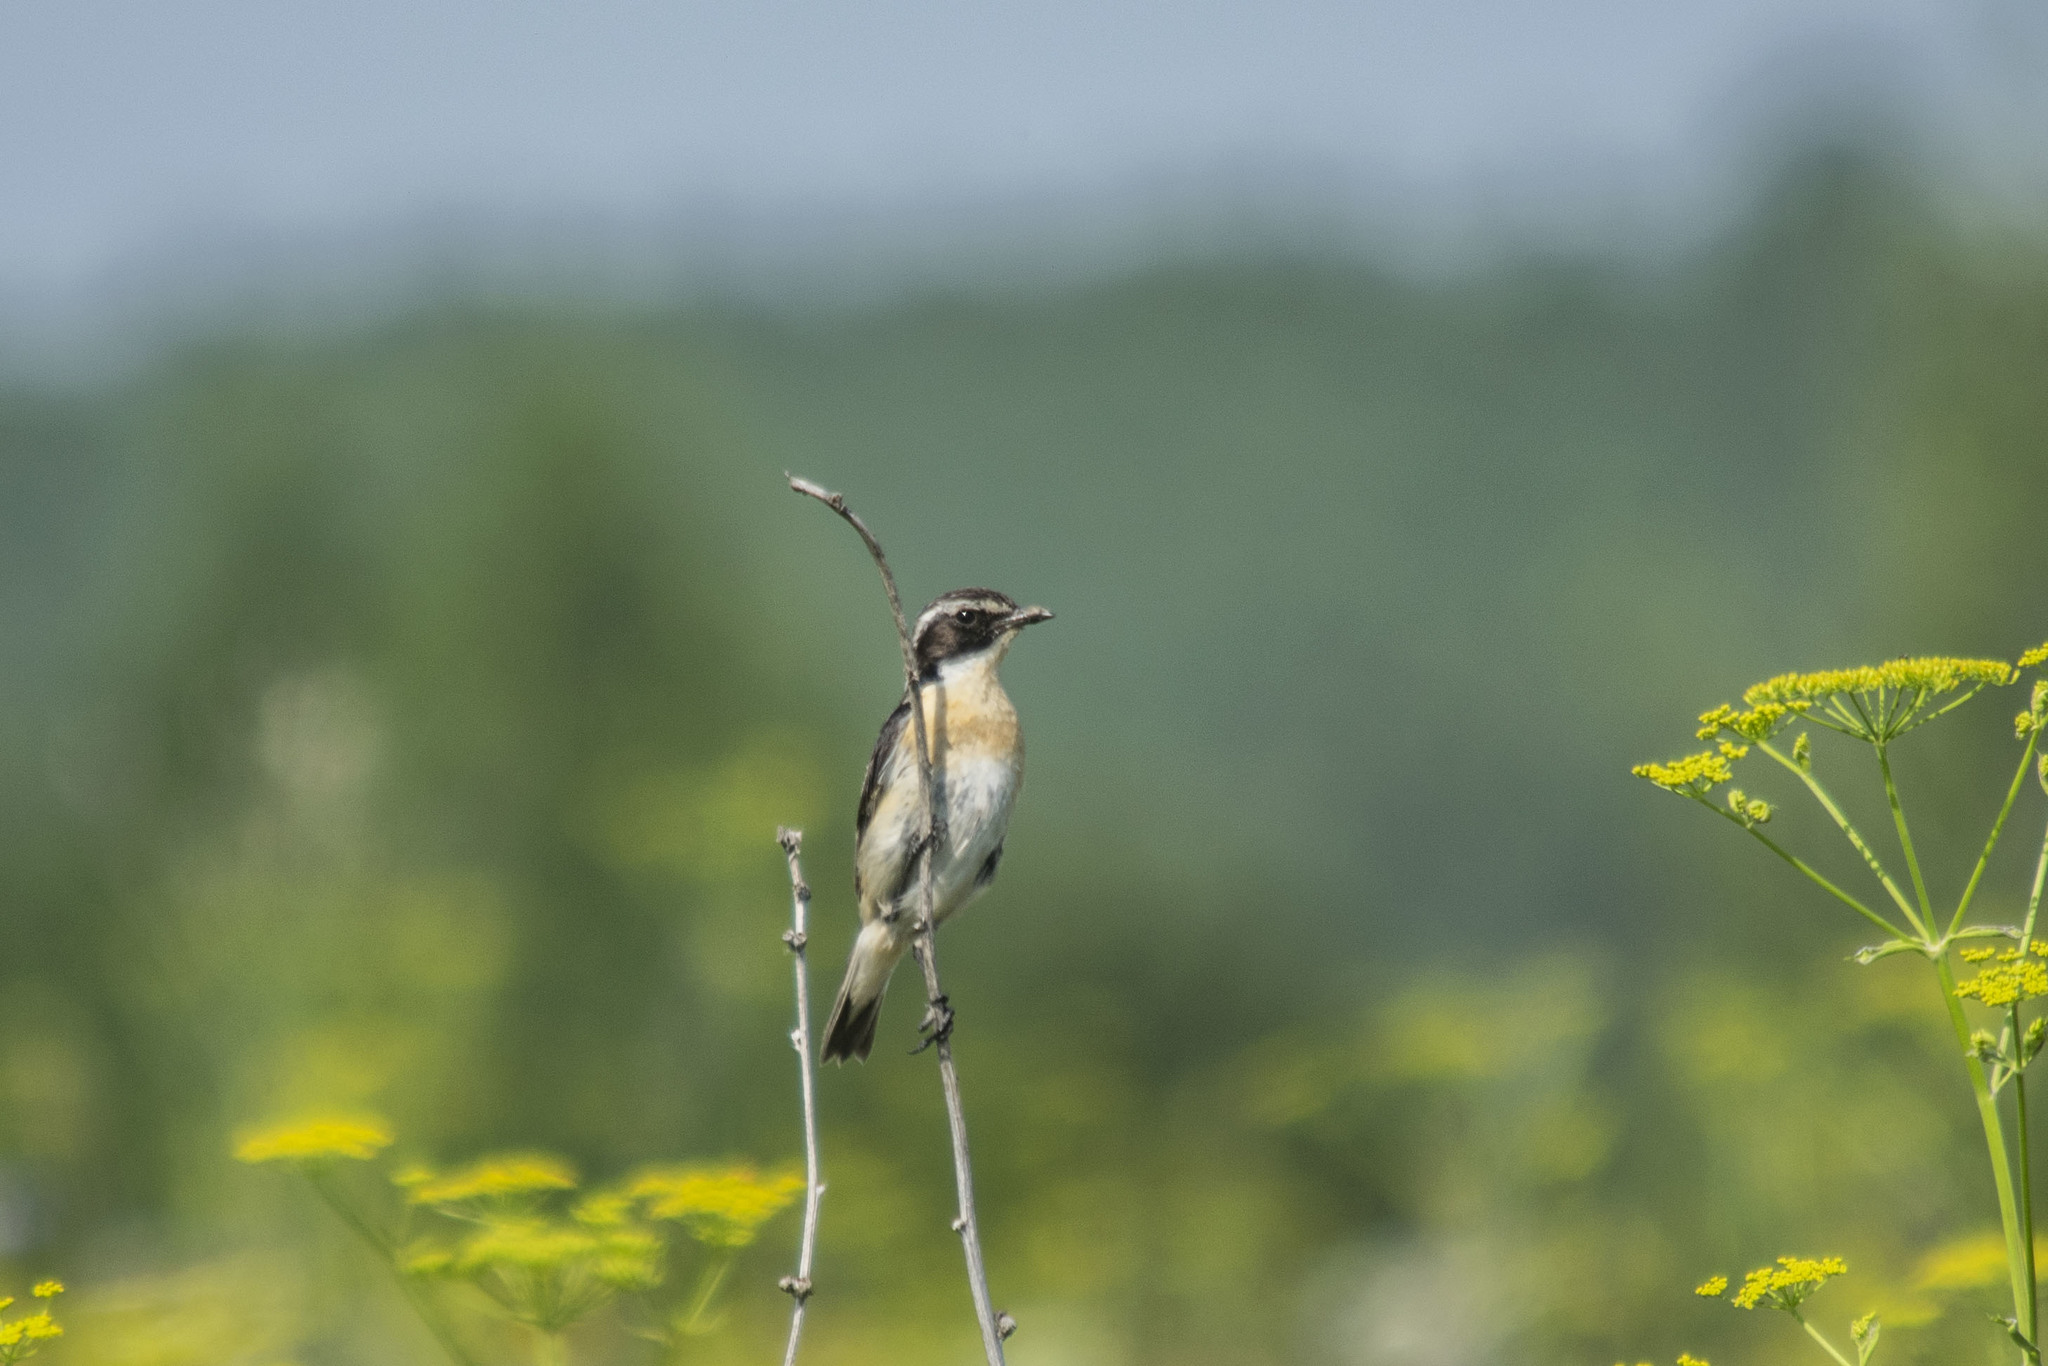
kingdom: Animalia
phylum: Chordata
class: Aves
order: Passeriformes
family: Muscicapidae
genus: Saxicola
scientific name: Saxicola rubetra
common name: Whinchat
